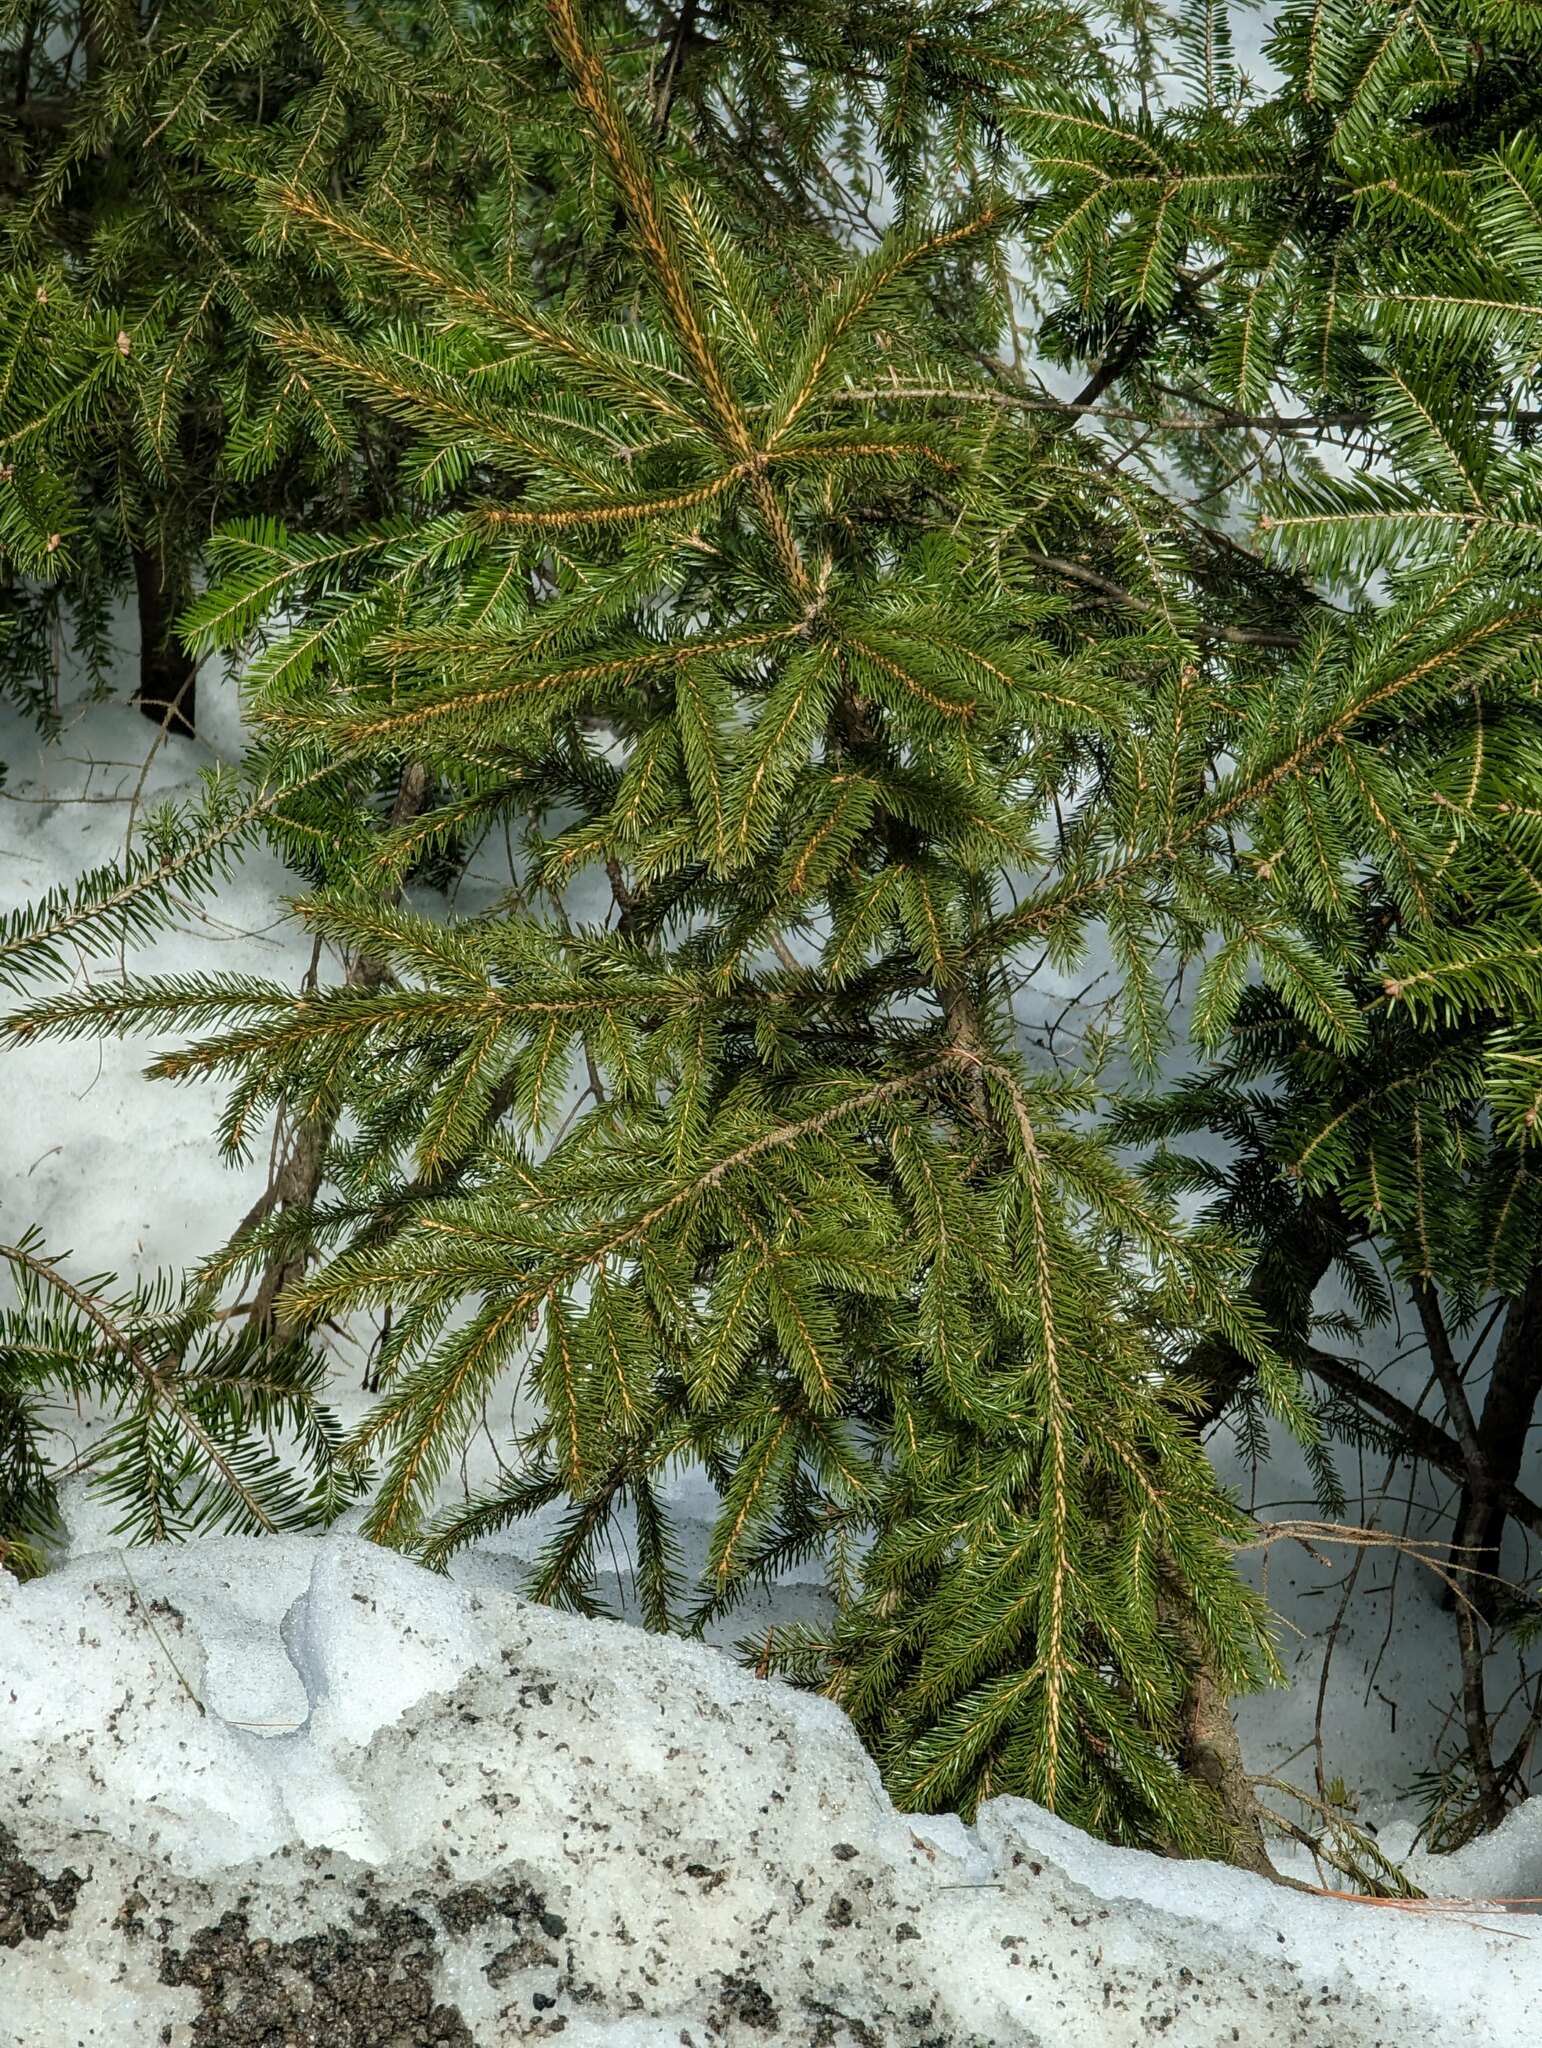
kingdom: Plantae
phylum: Tracheophyta
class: Pinopsida
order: Pinales
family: Pinaceae
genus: Picea
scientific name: Picea rubens
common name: Red spruce
